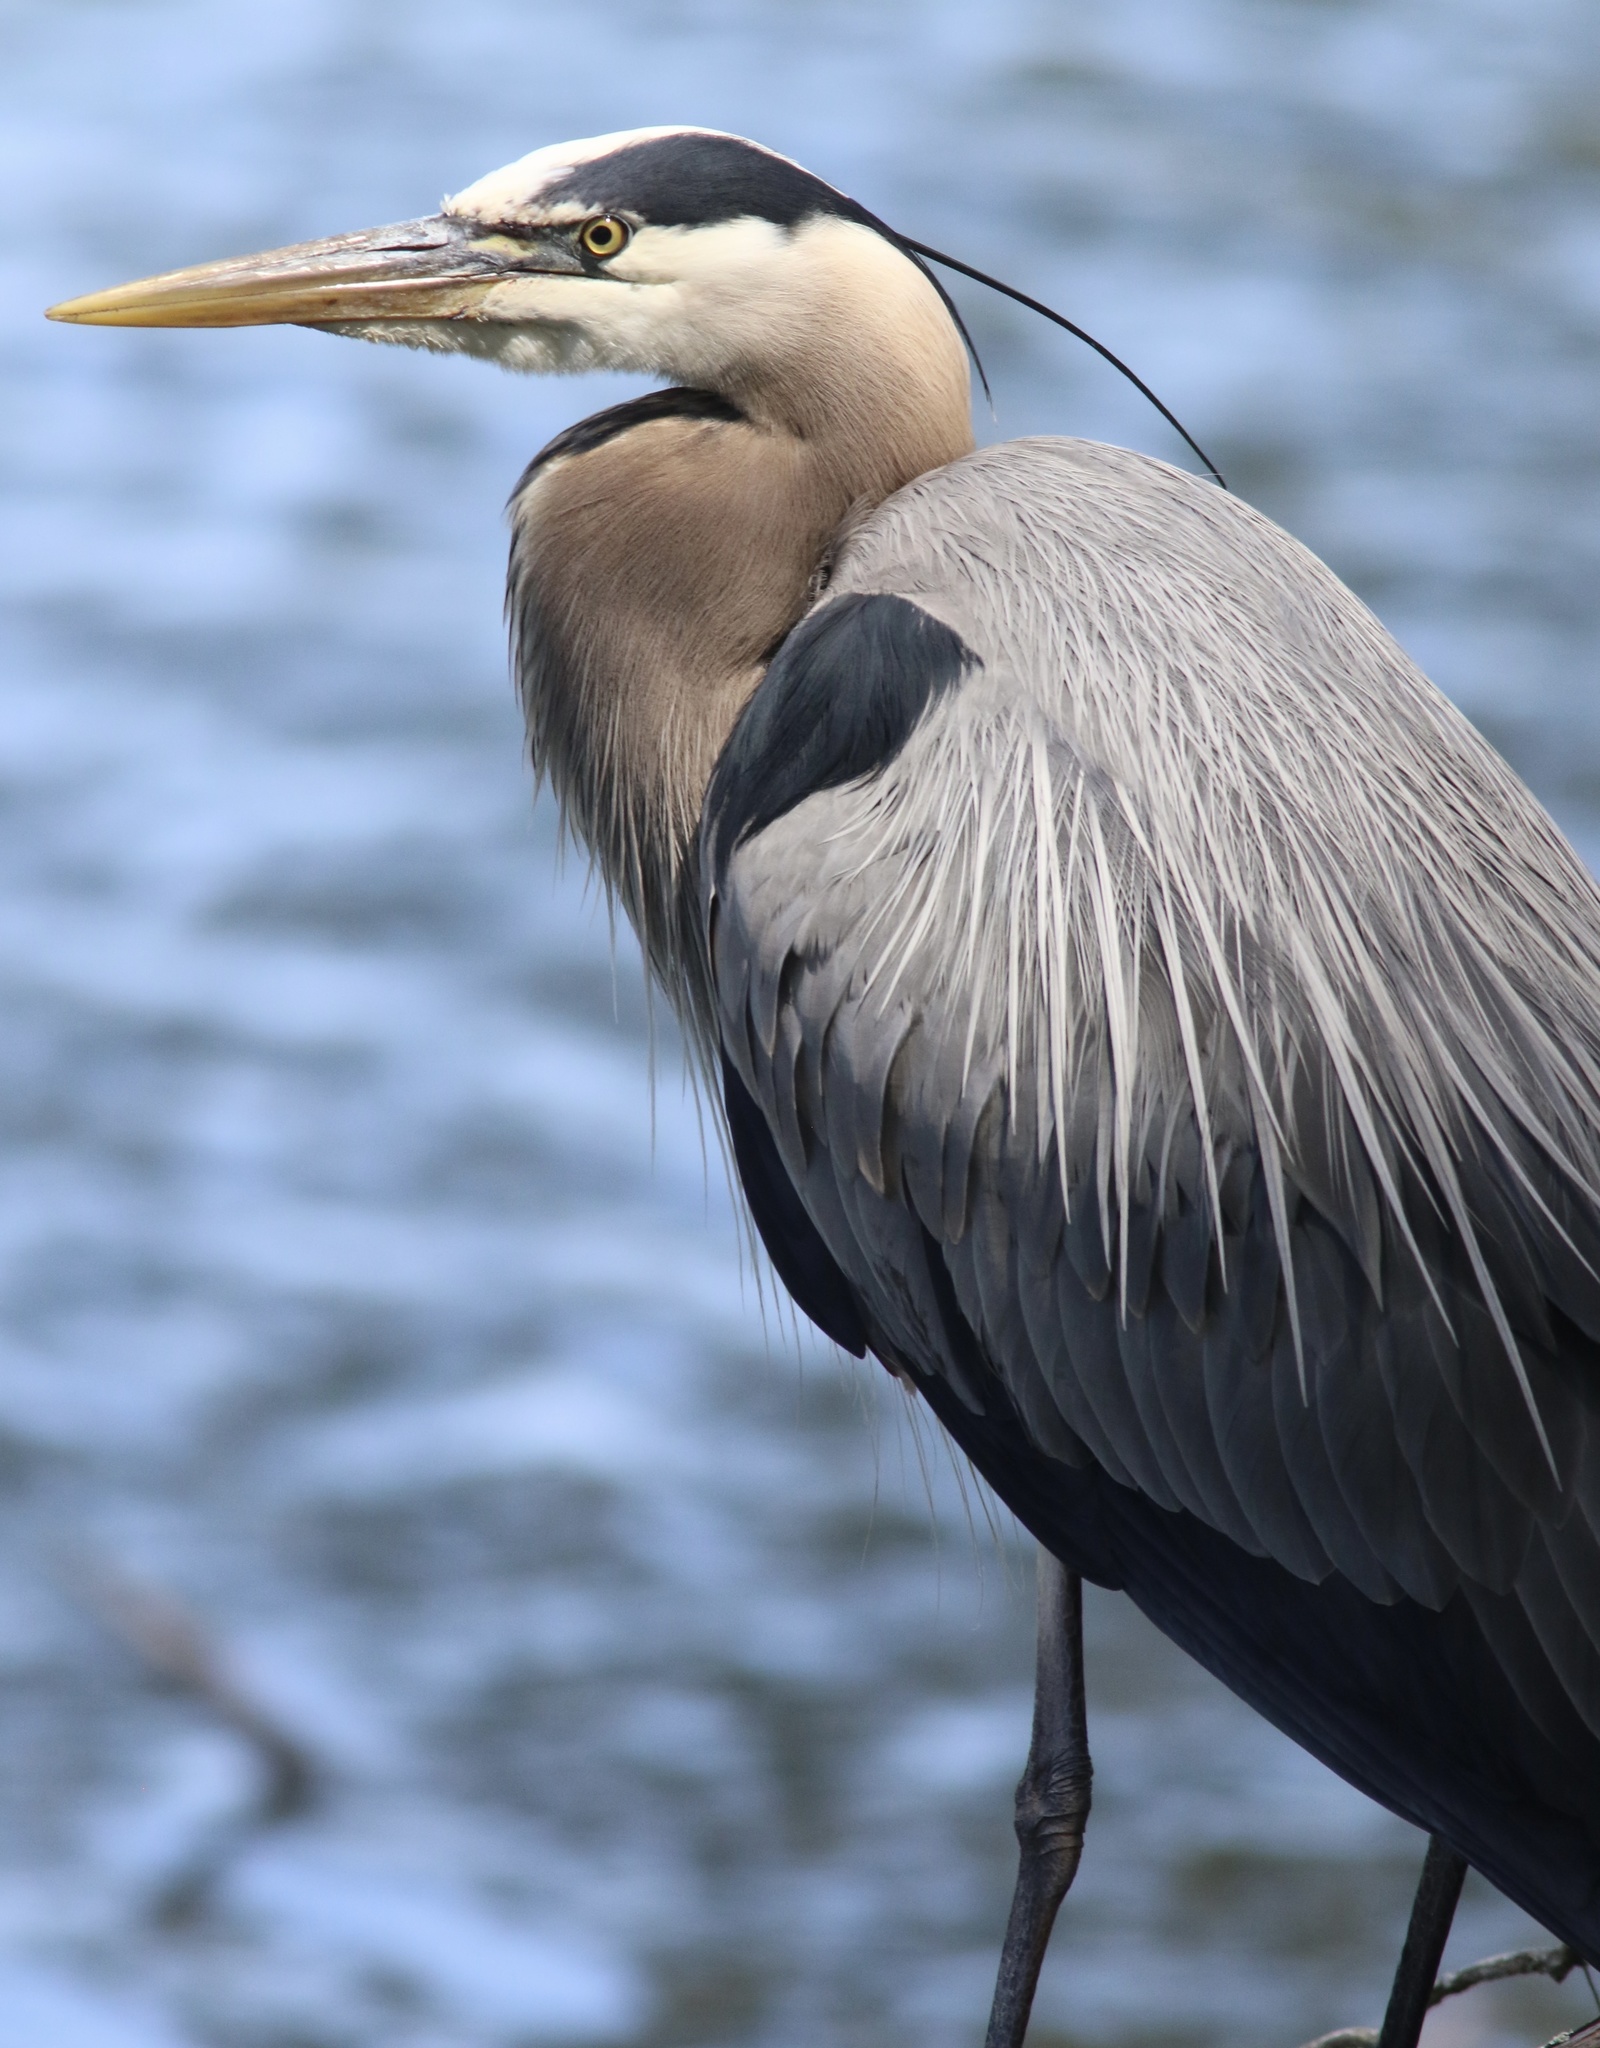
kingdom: Animalia
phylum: Chordata
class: Aves
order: Pelecaniformes
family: Ardeidae
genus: Ardea
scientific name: Ardea herodias
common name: Great blue heron
